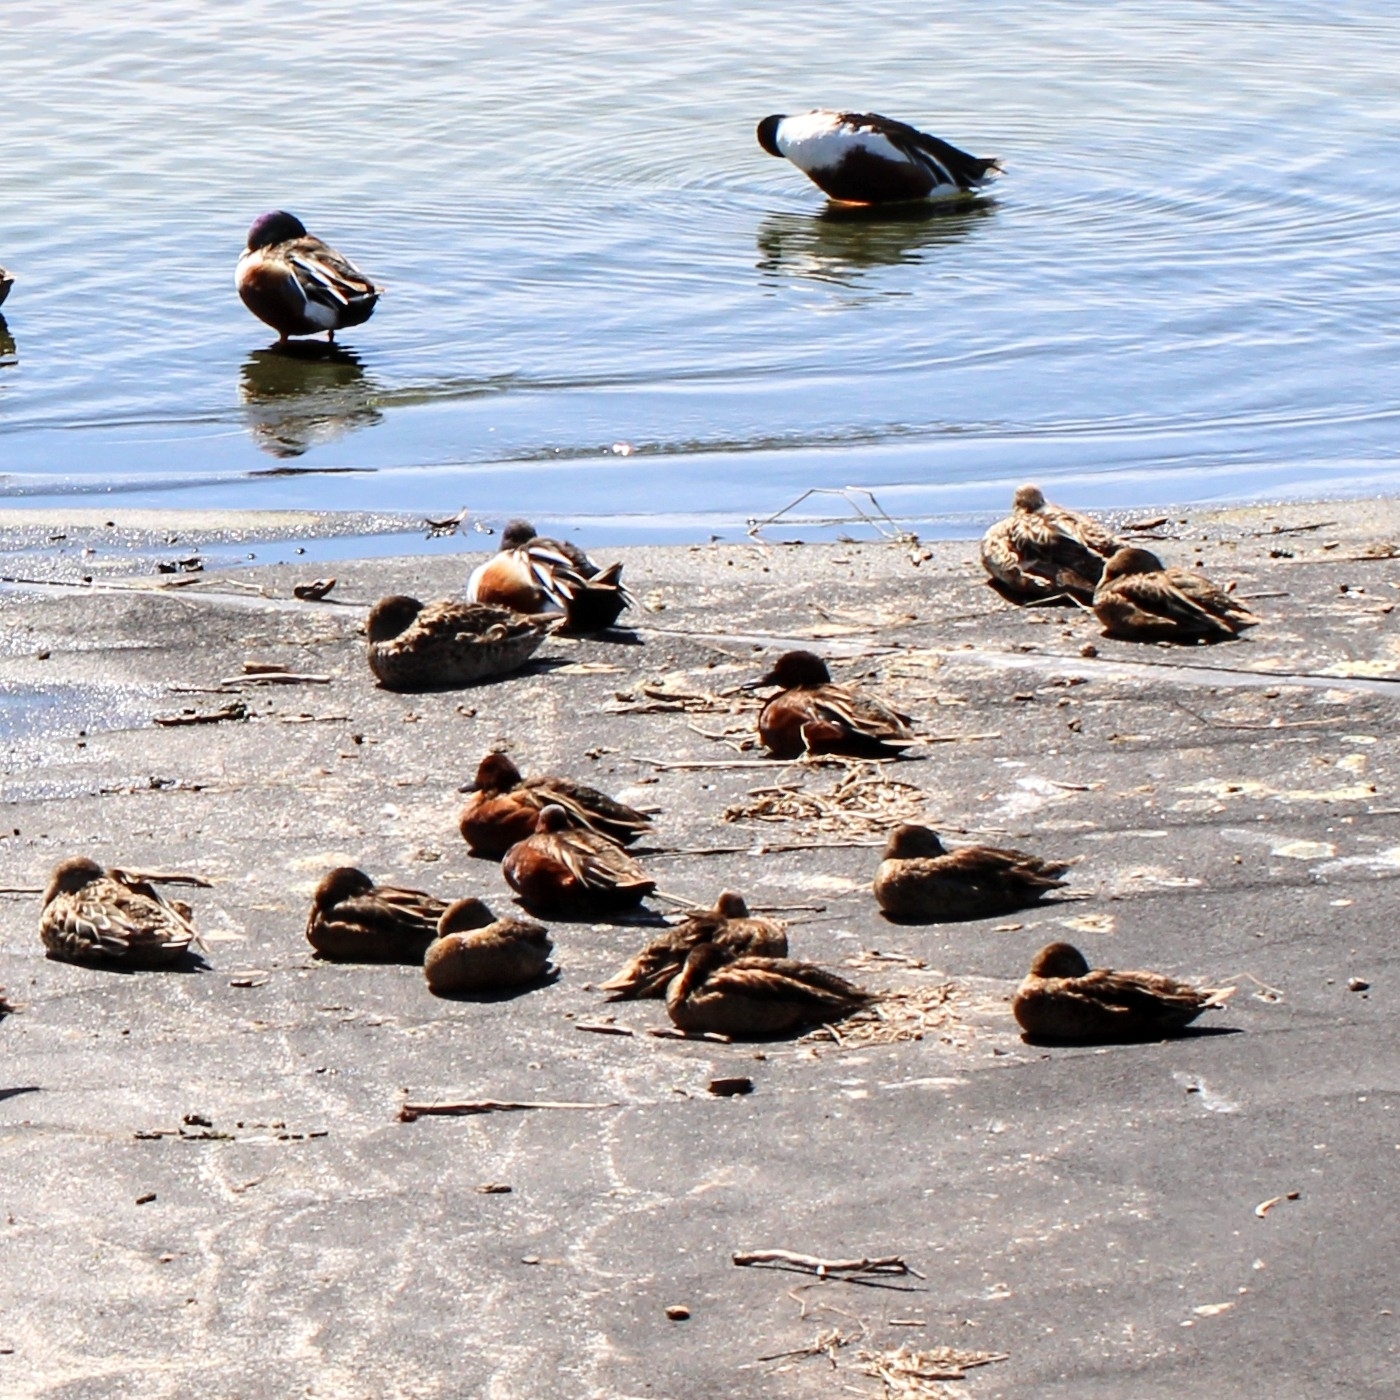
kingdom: Animalia
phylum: Chordata
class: Aves
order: Anseriformes
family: Anatidae
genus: Spatula
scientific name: Spatula cyanoptera
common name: Cinnamon teal
